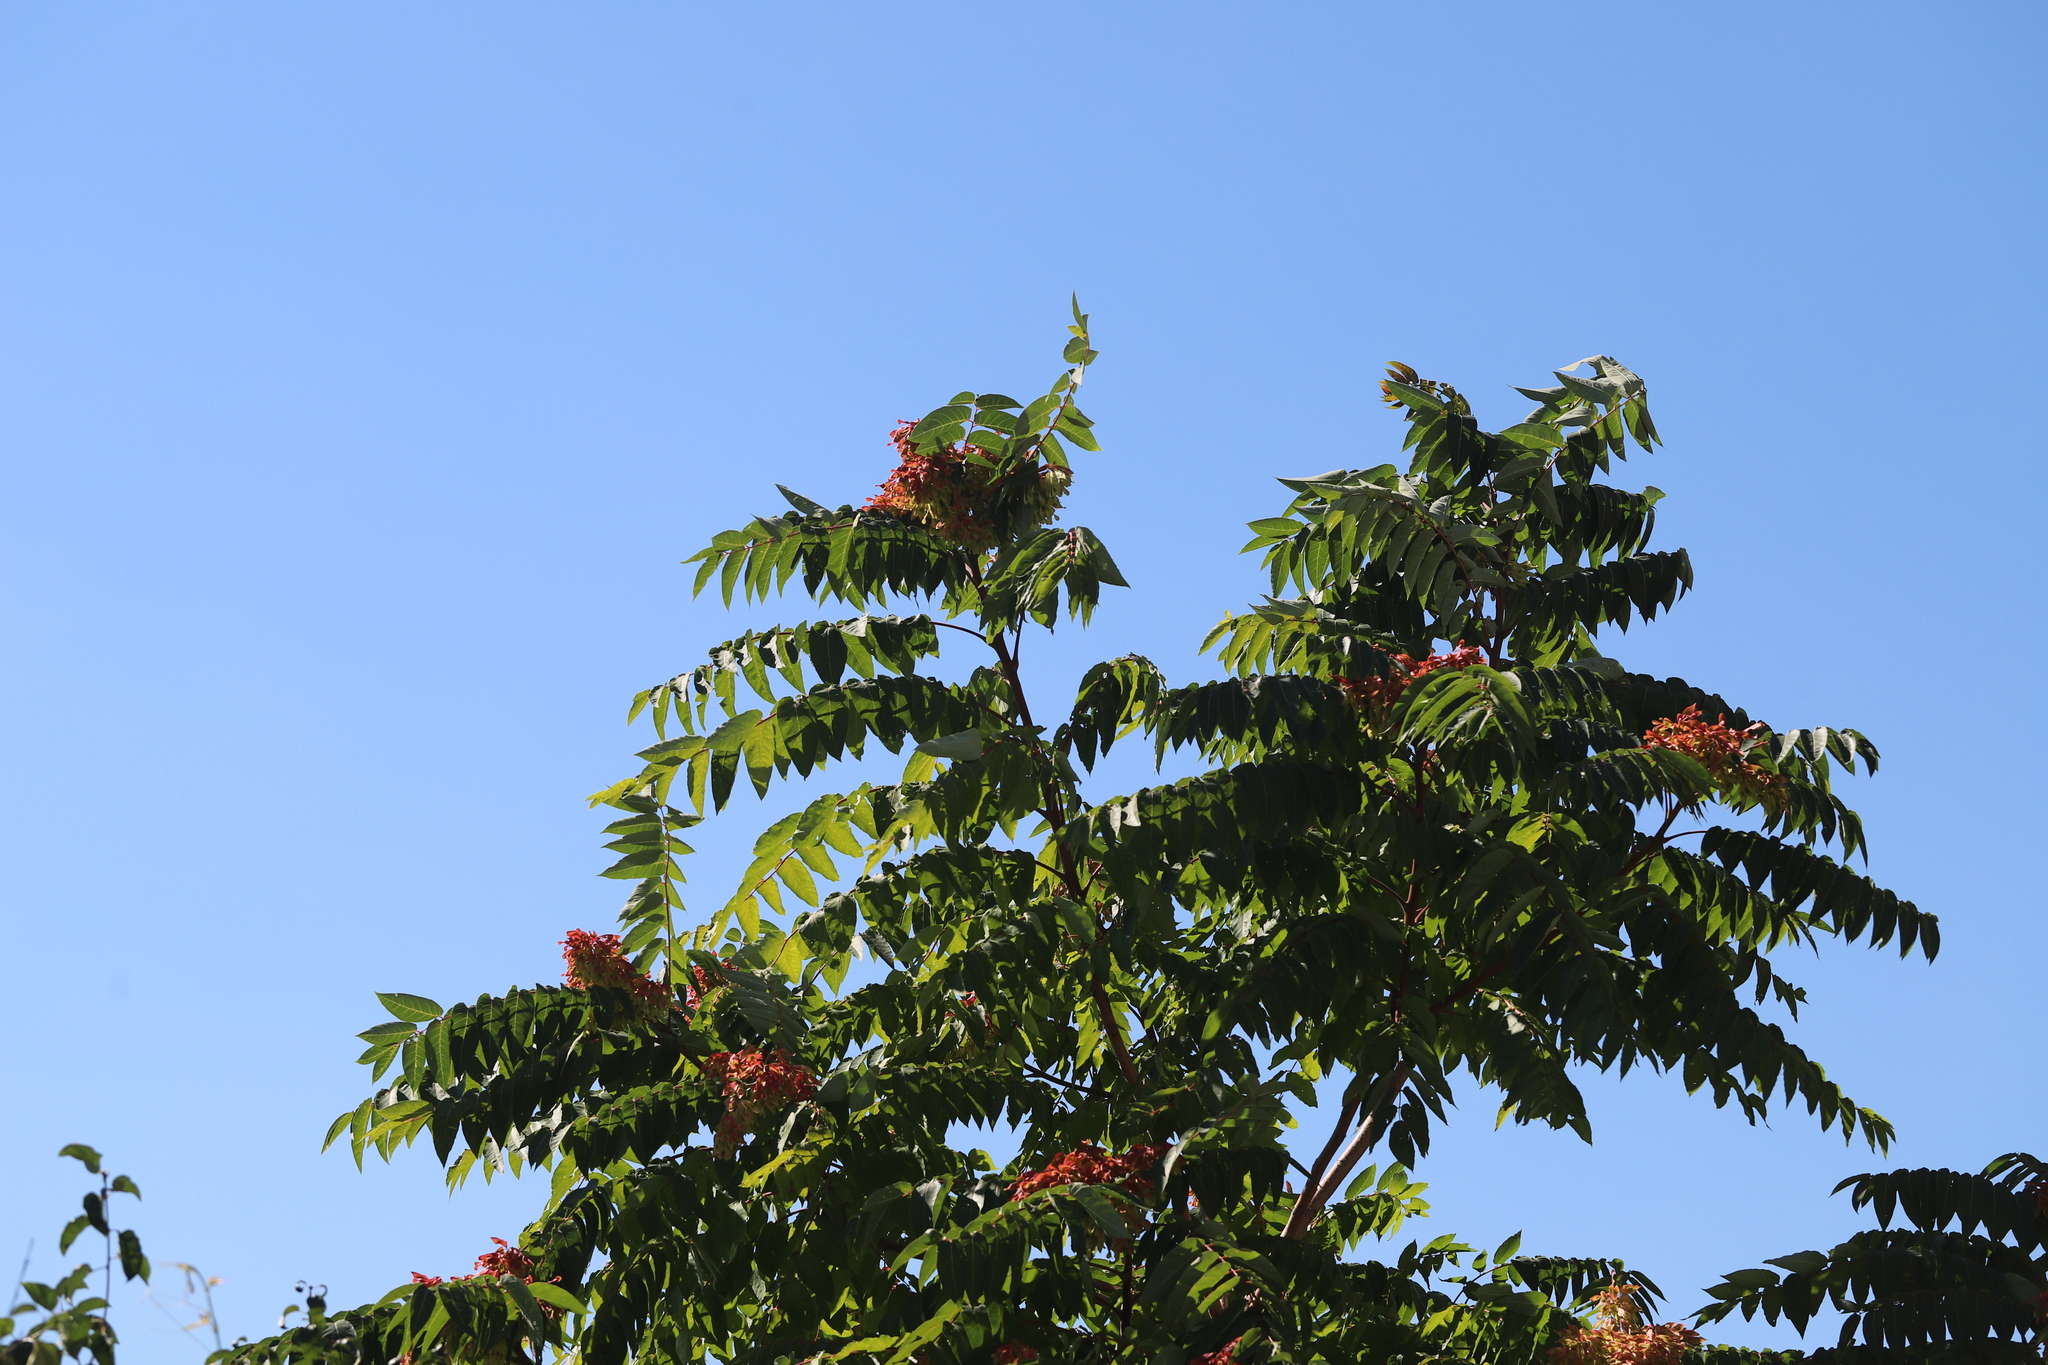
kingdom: Plantae
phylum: Tracheophyta
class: Magnoliopsida
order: Sapindales
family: Simaroubaceae
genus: Ailanthus
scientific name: Ailanthus altissima
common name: Tree-of-heaven
